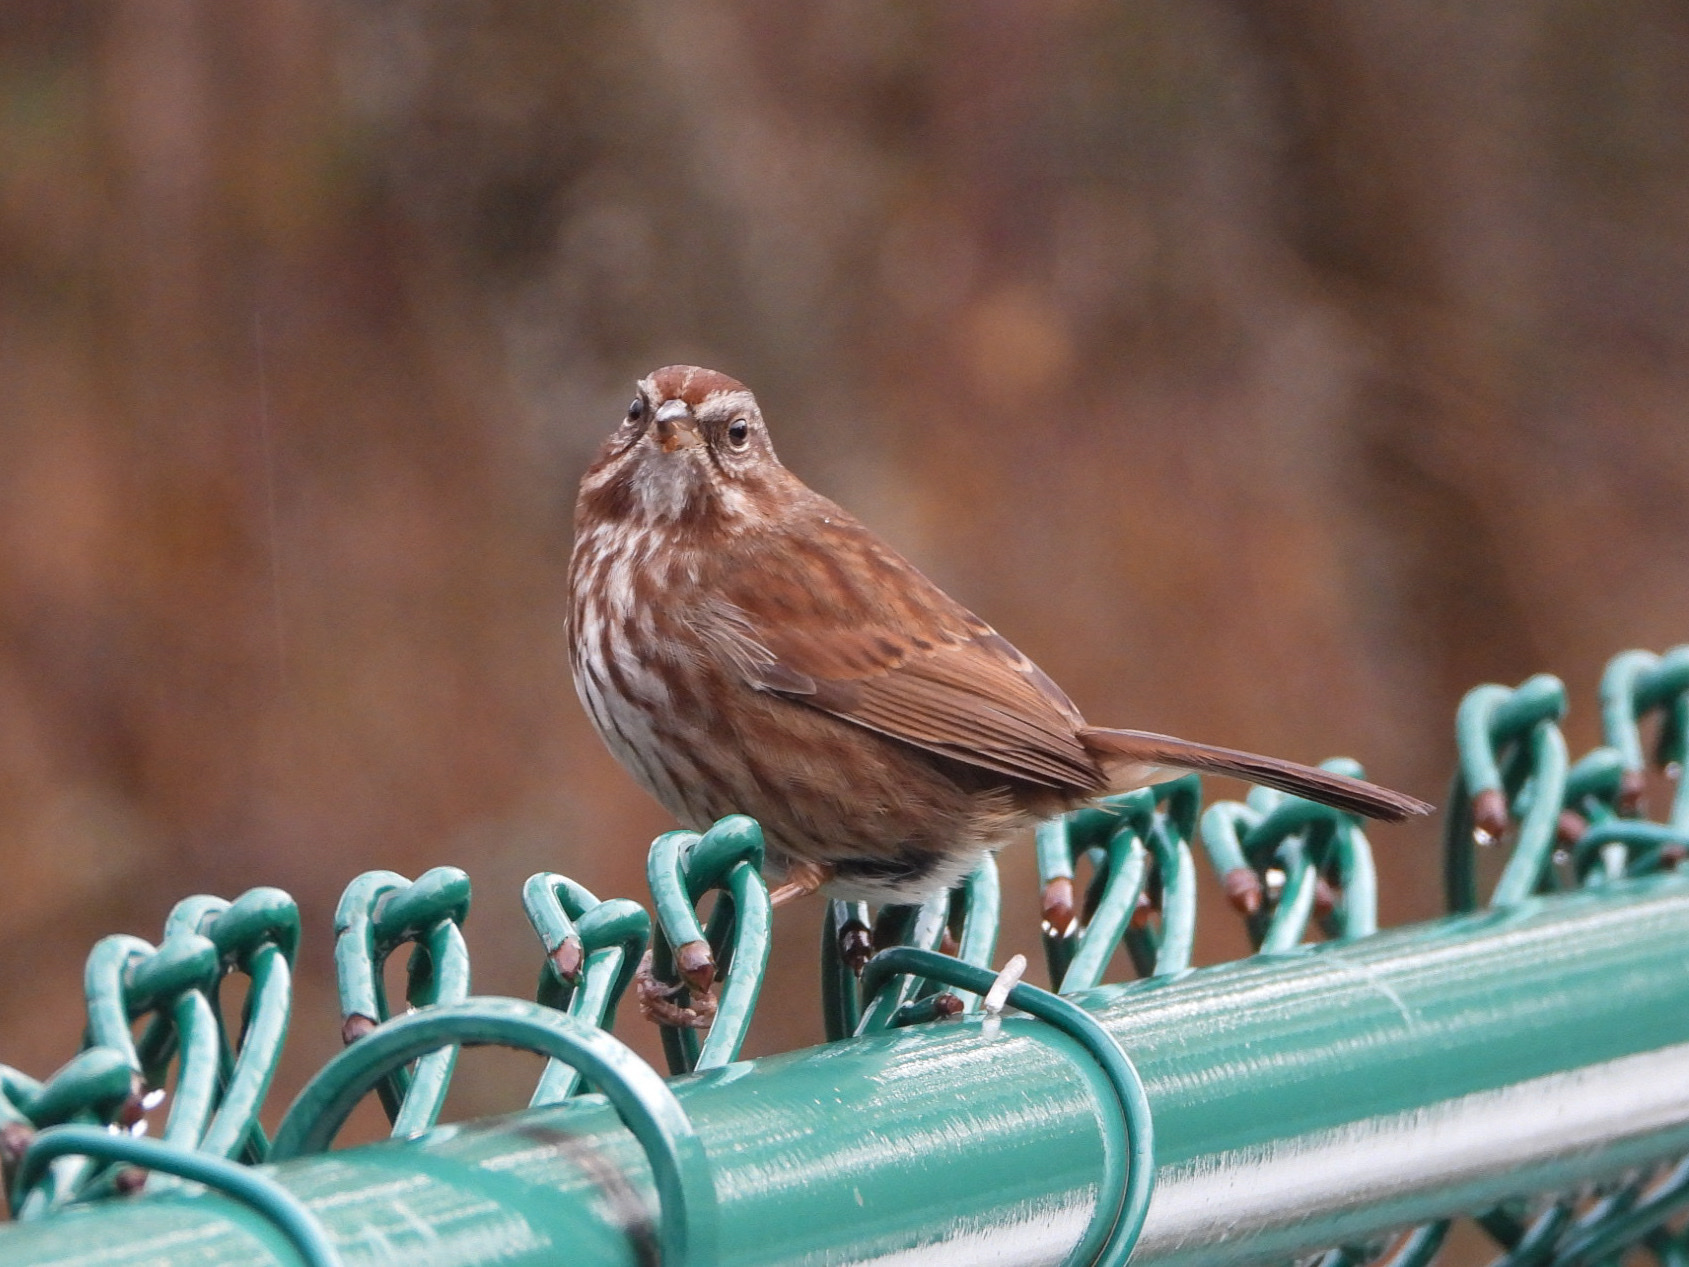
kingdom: Animalia
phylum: Chordata
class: Aves
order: Passeriformes
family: Passerellidae
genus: Melospiza
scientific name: Melospiza melodia
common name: Song sparrow
